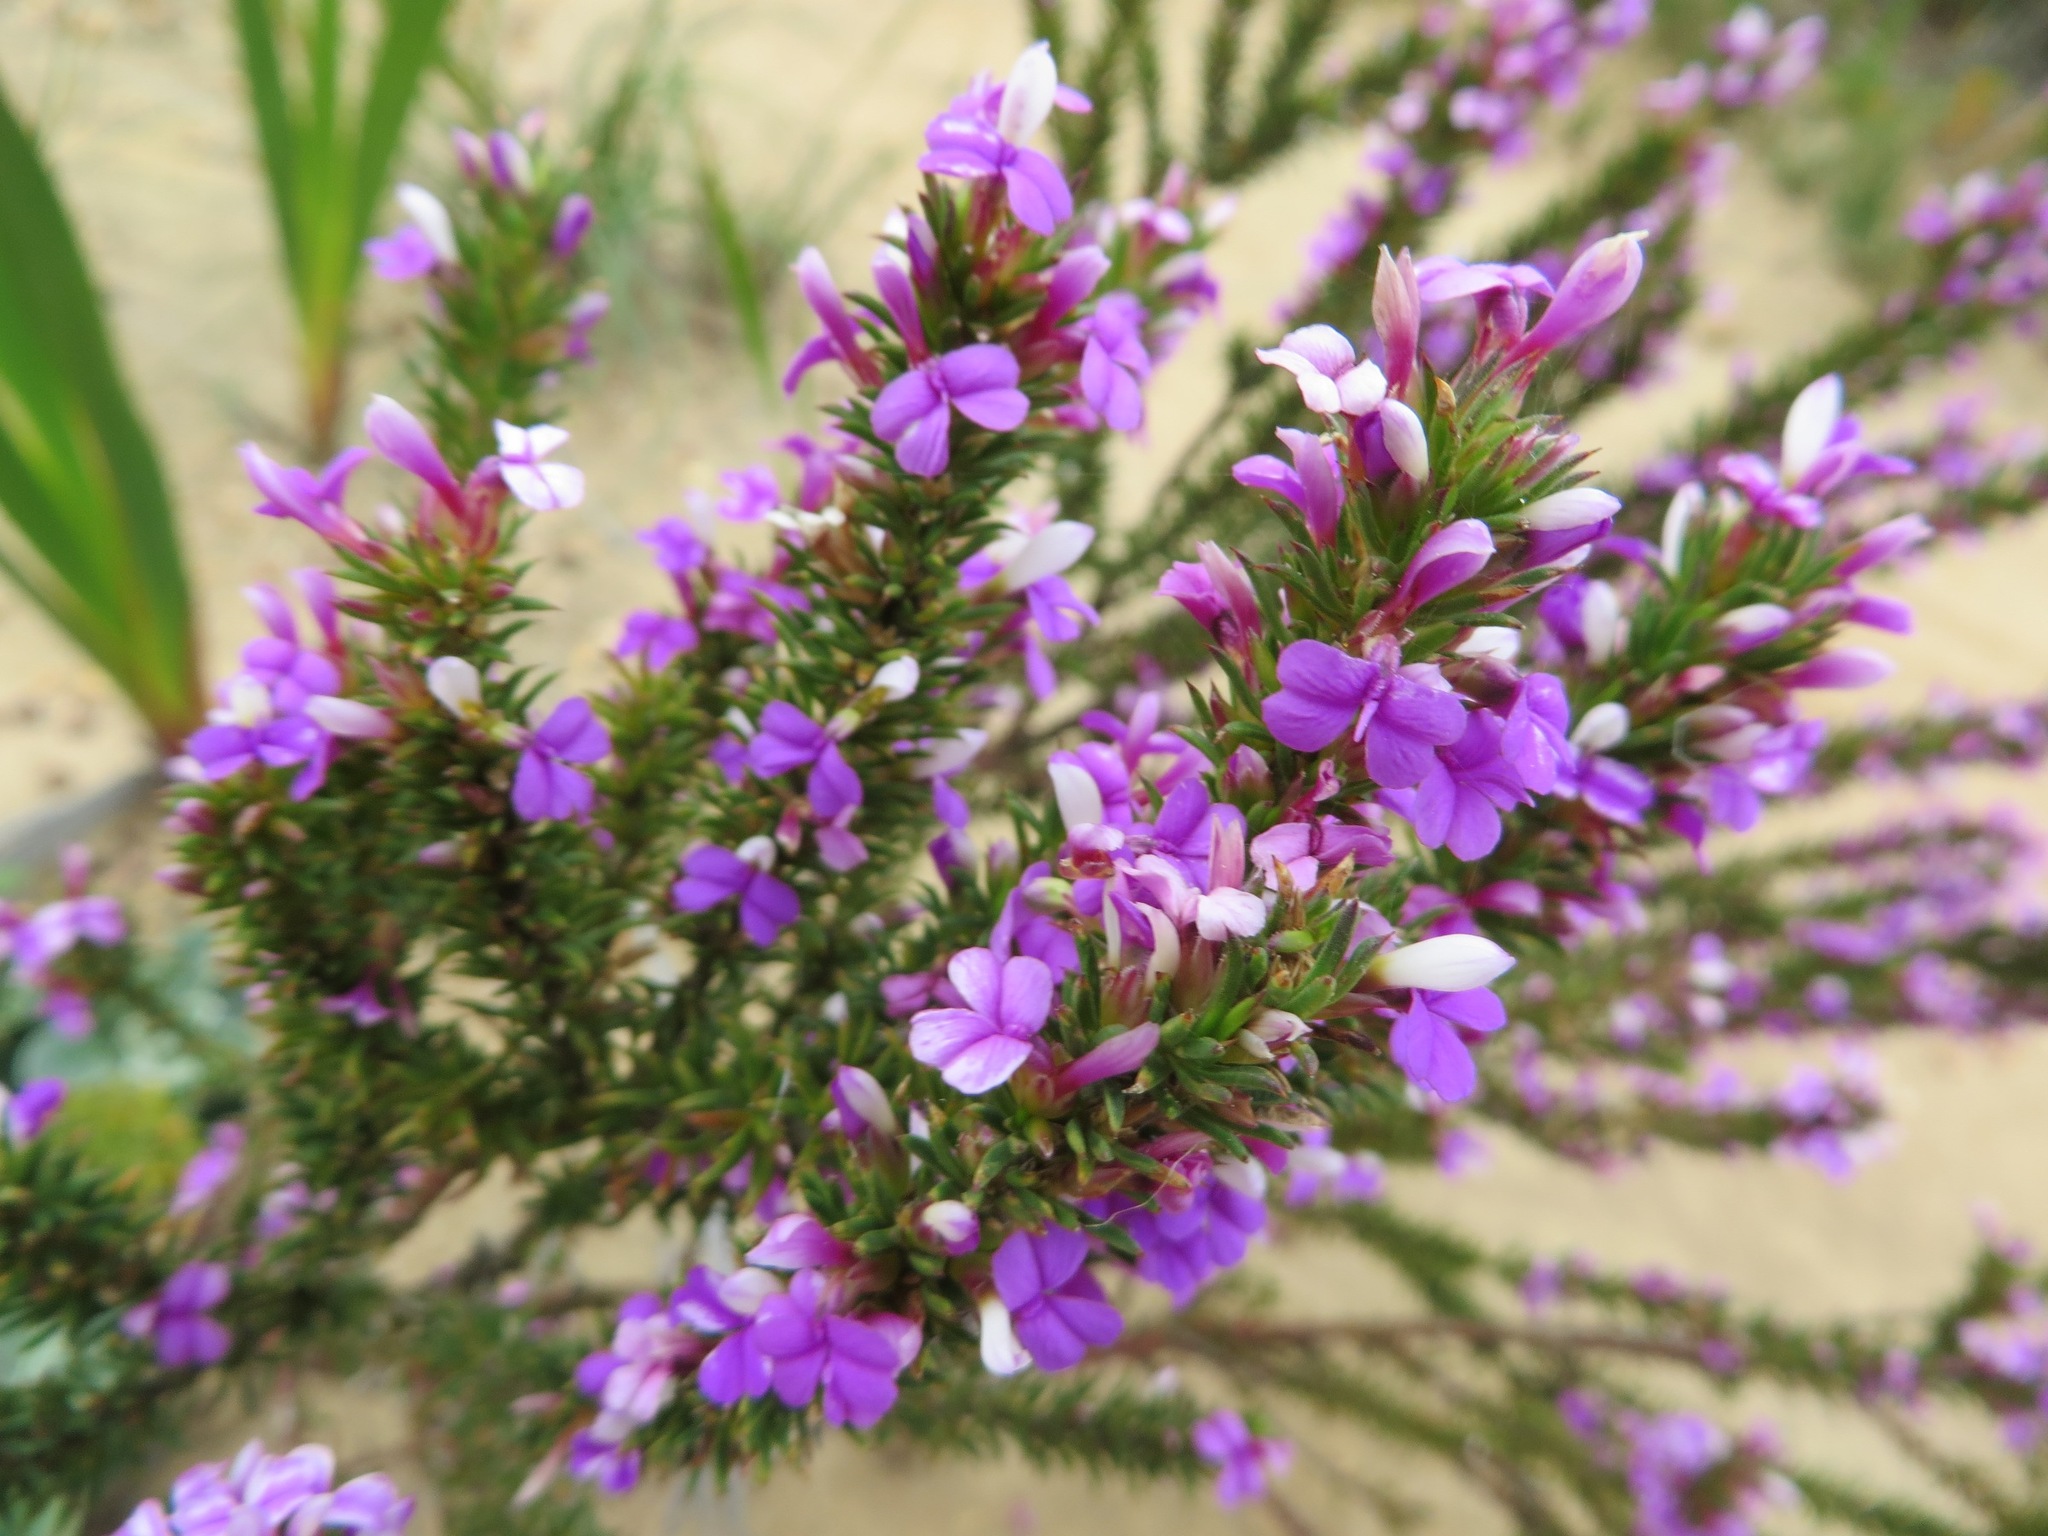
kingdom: Plantae
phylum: Tracheophyta
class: Magnoliopsida
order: Fabales
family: Polygalaceae
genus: Muraltia
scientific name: Muraltia heisteria
